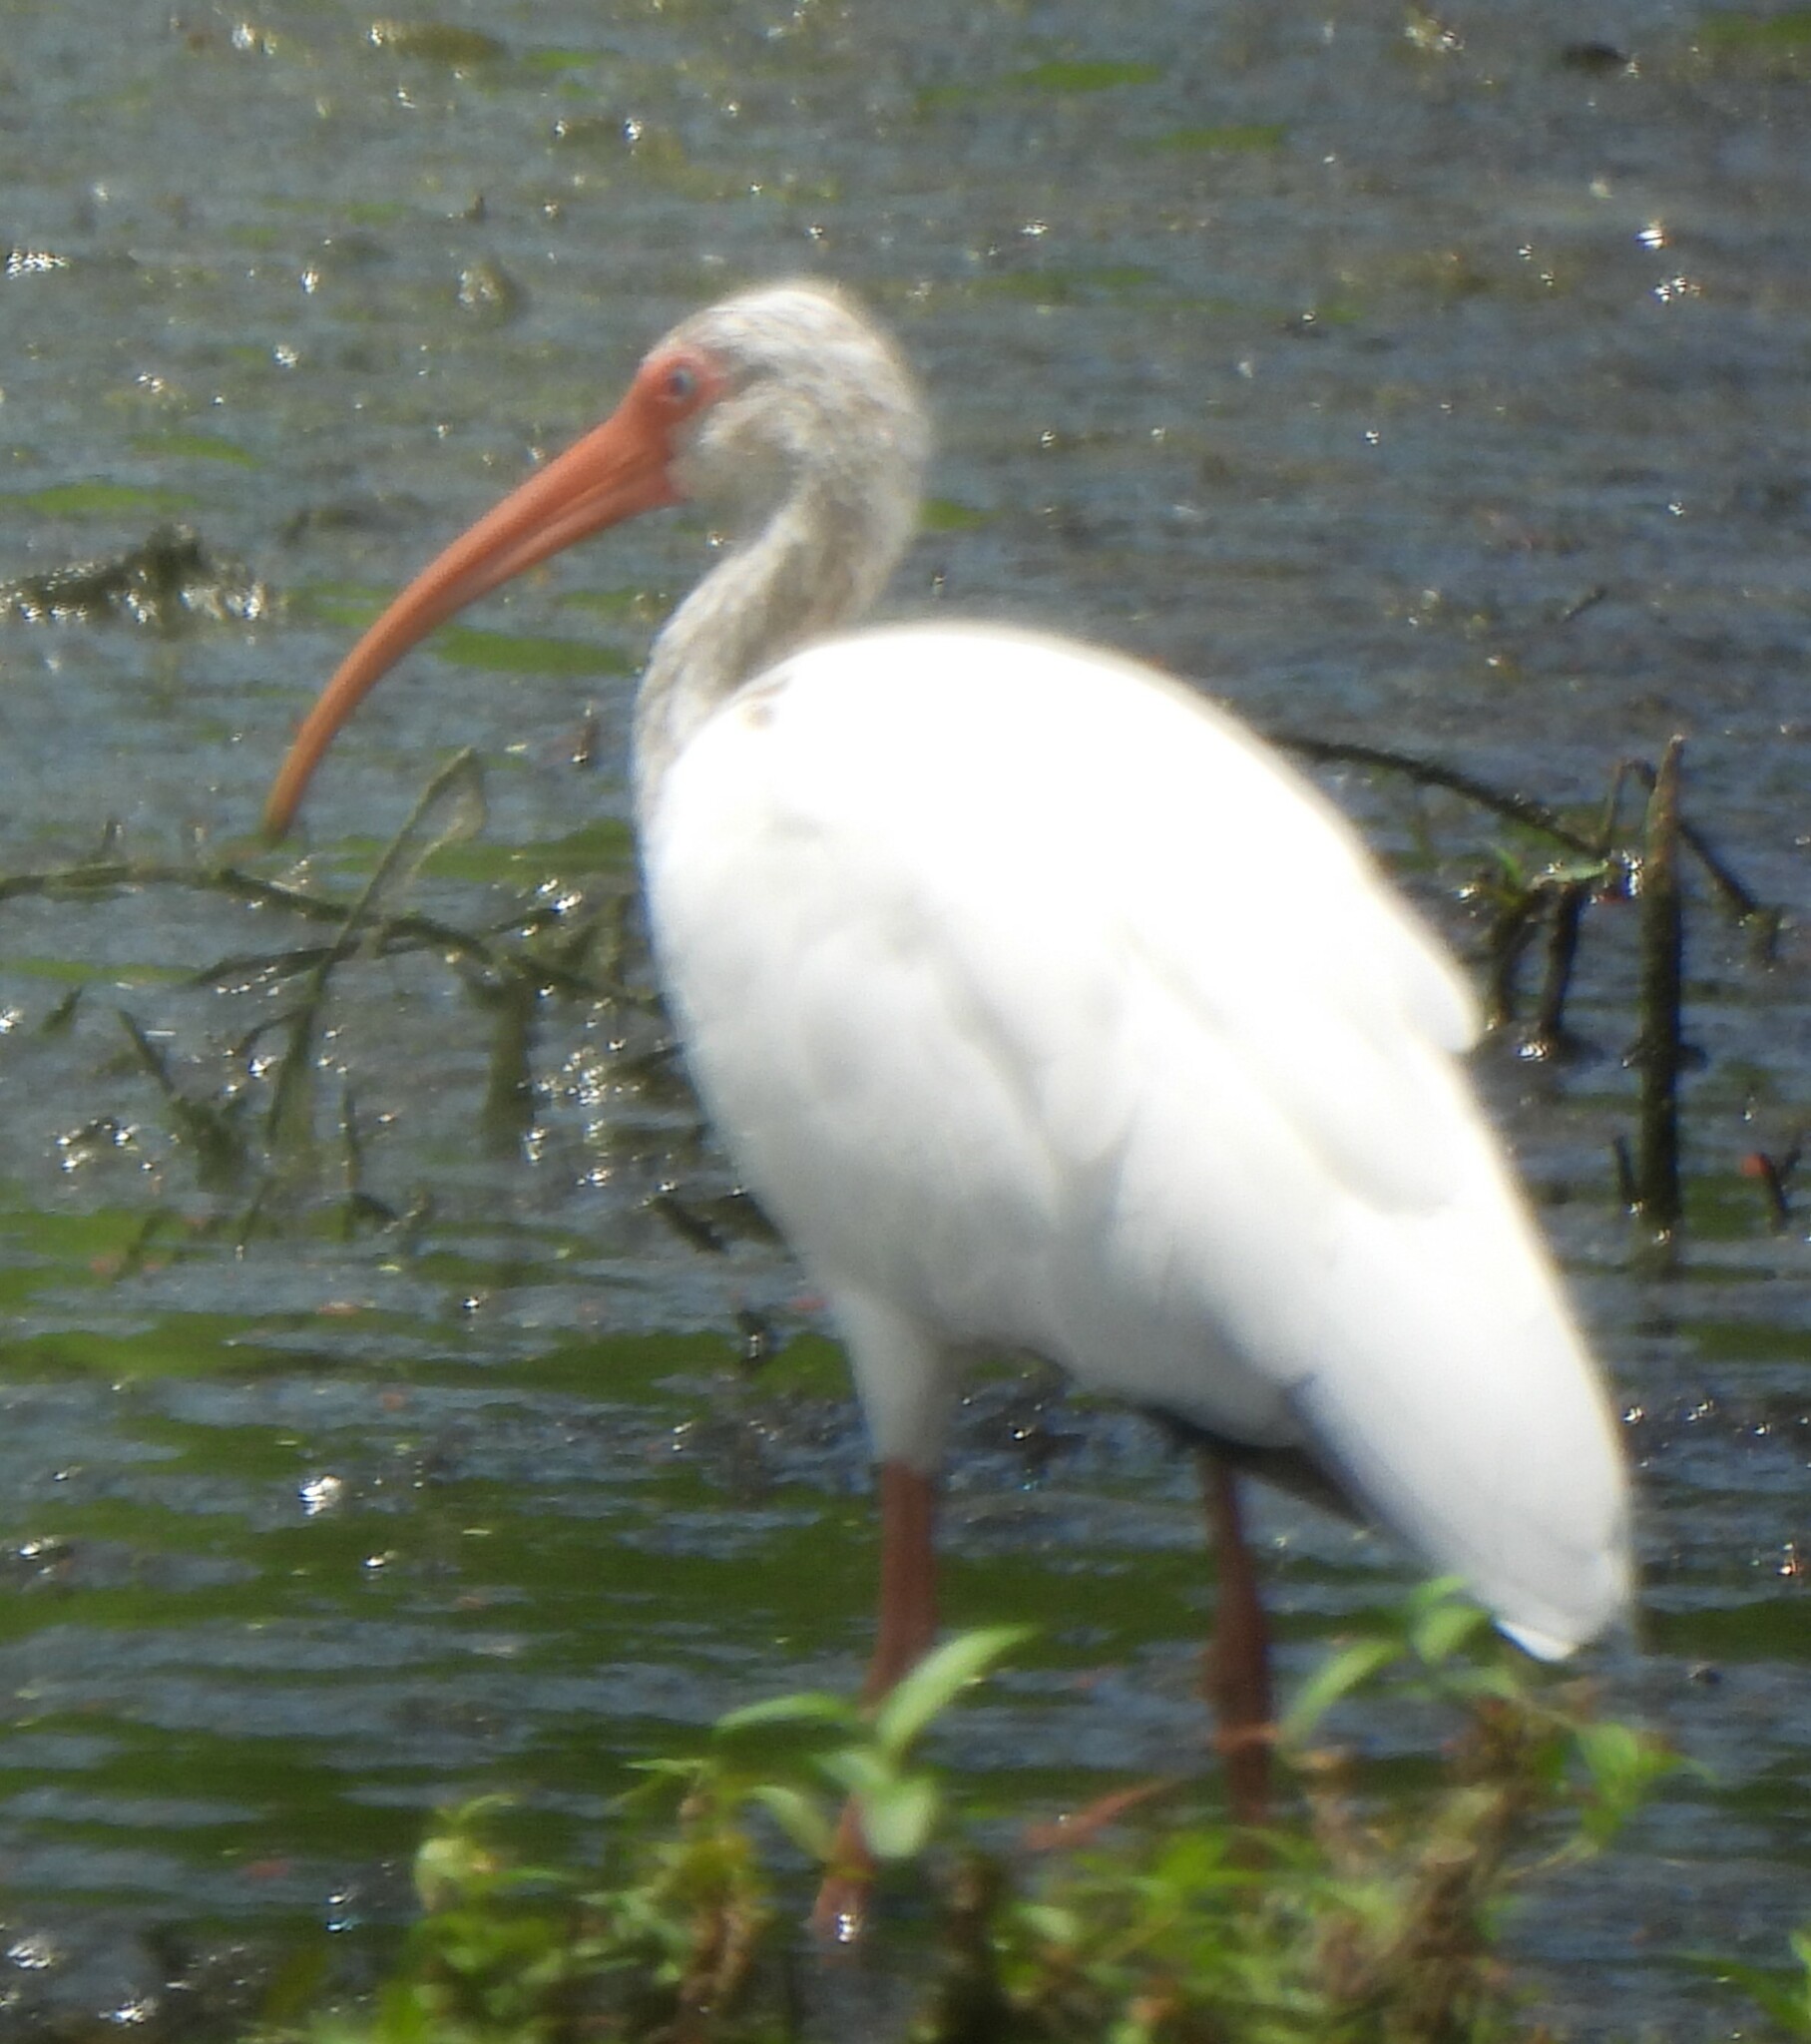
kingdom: Animalia
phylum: Chordata
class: Aves
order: Pelecaniformes
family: Threskiornithidae
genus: Eudocimus
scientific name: Eudocimus albus
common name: White ibis
